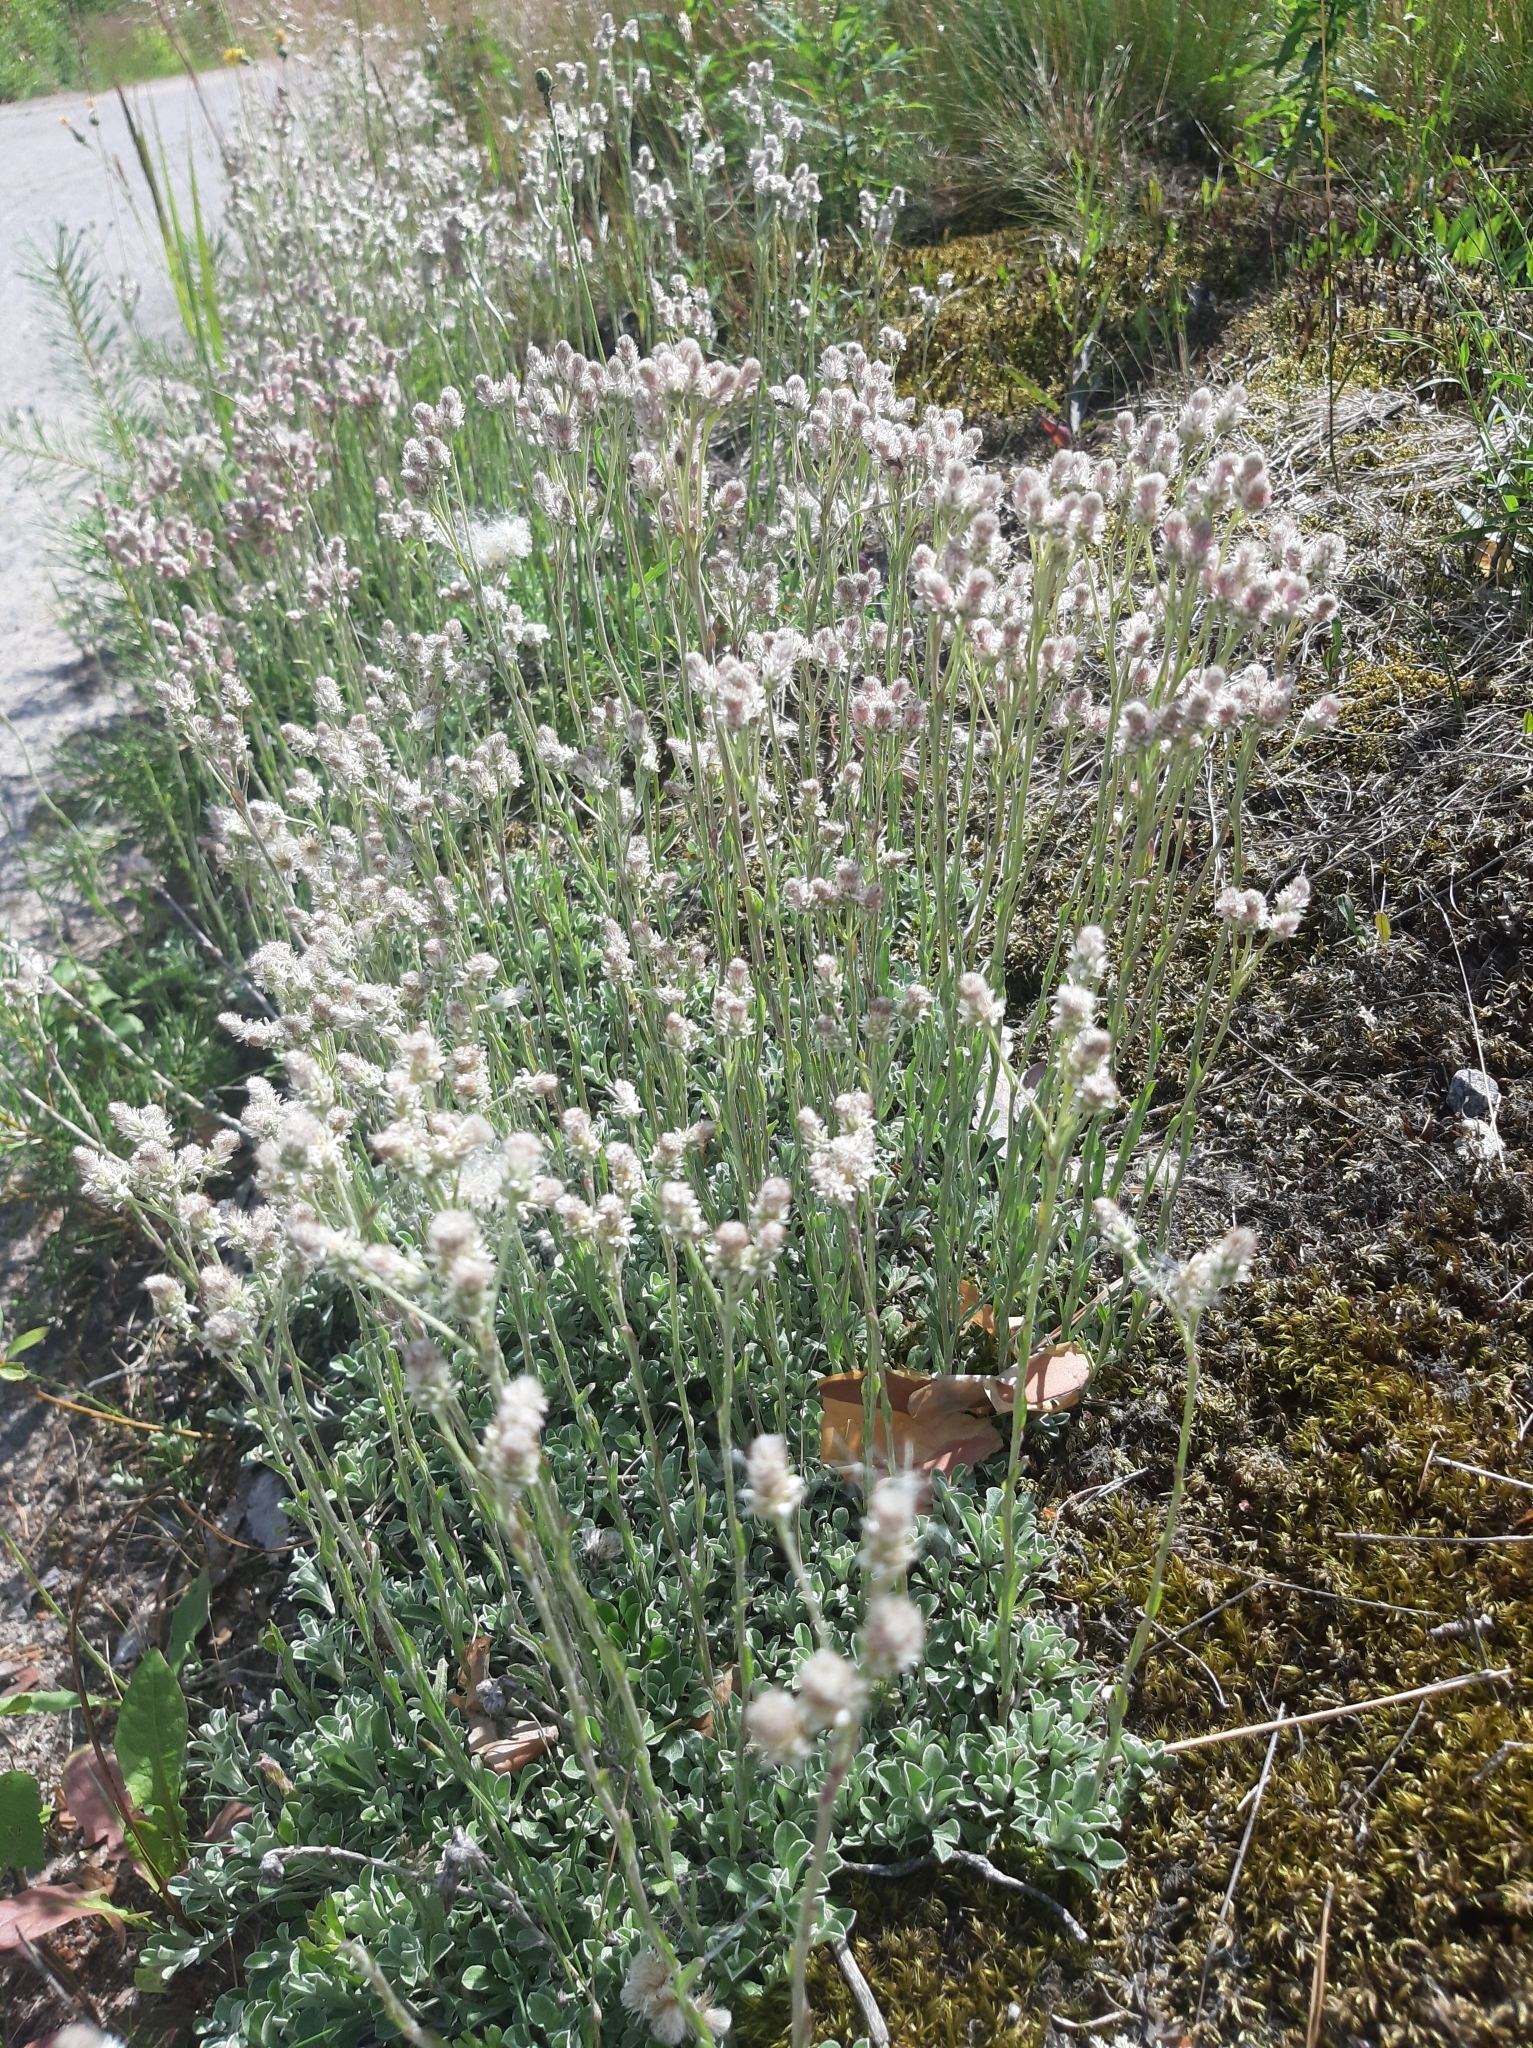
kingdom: Plantae
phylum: Tracheophyta
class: Magnoliopsida
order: Asterales
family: Asteraceae
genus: Antennaria
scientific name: Antennaria dioica
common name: Mountain everlasting
